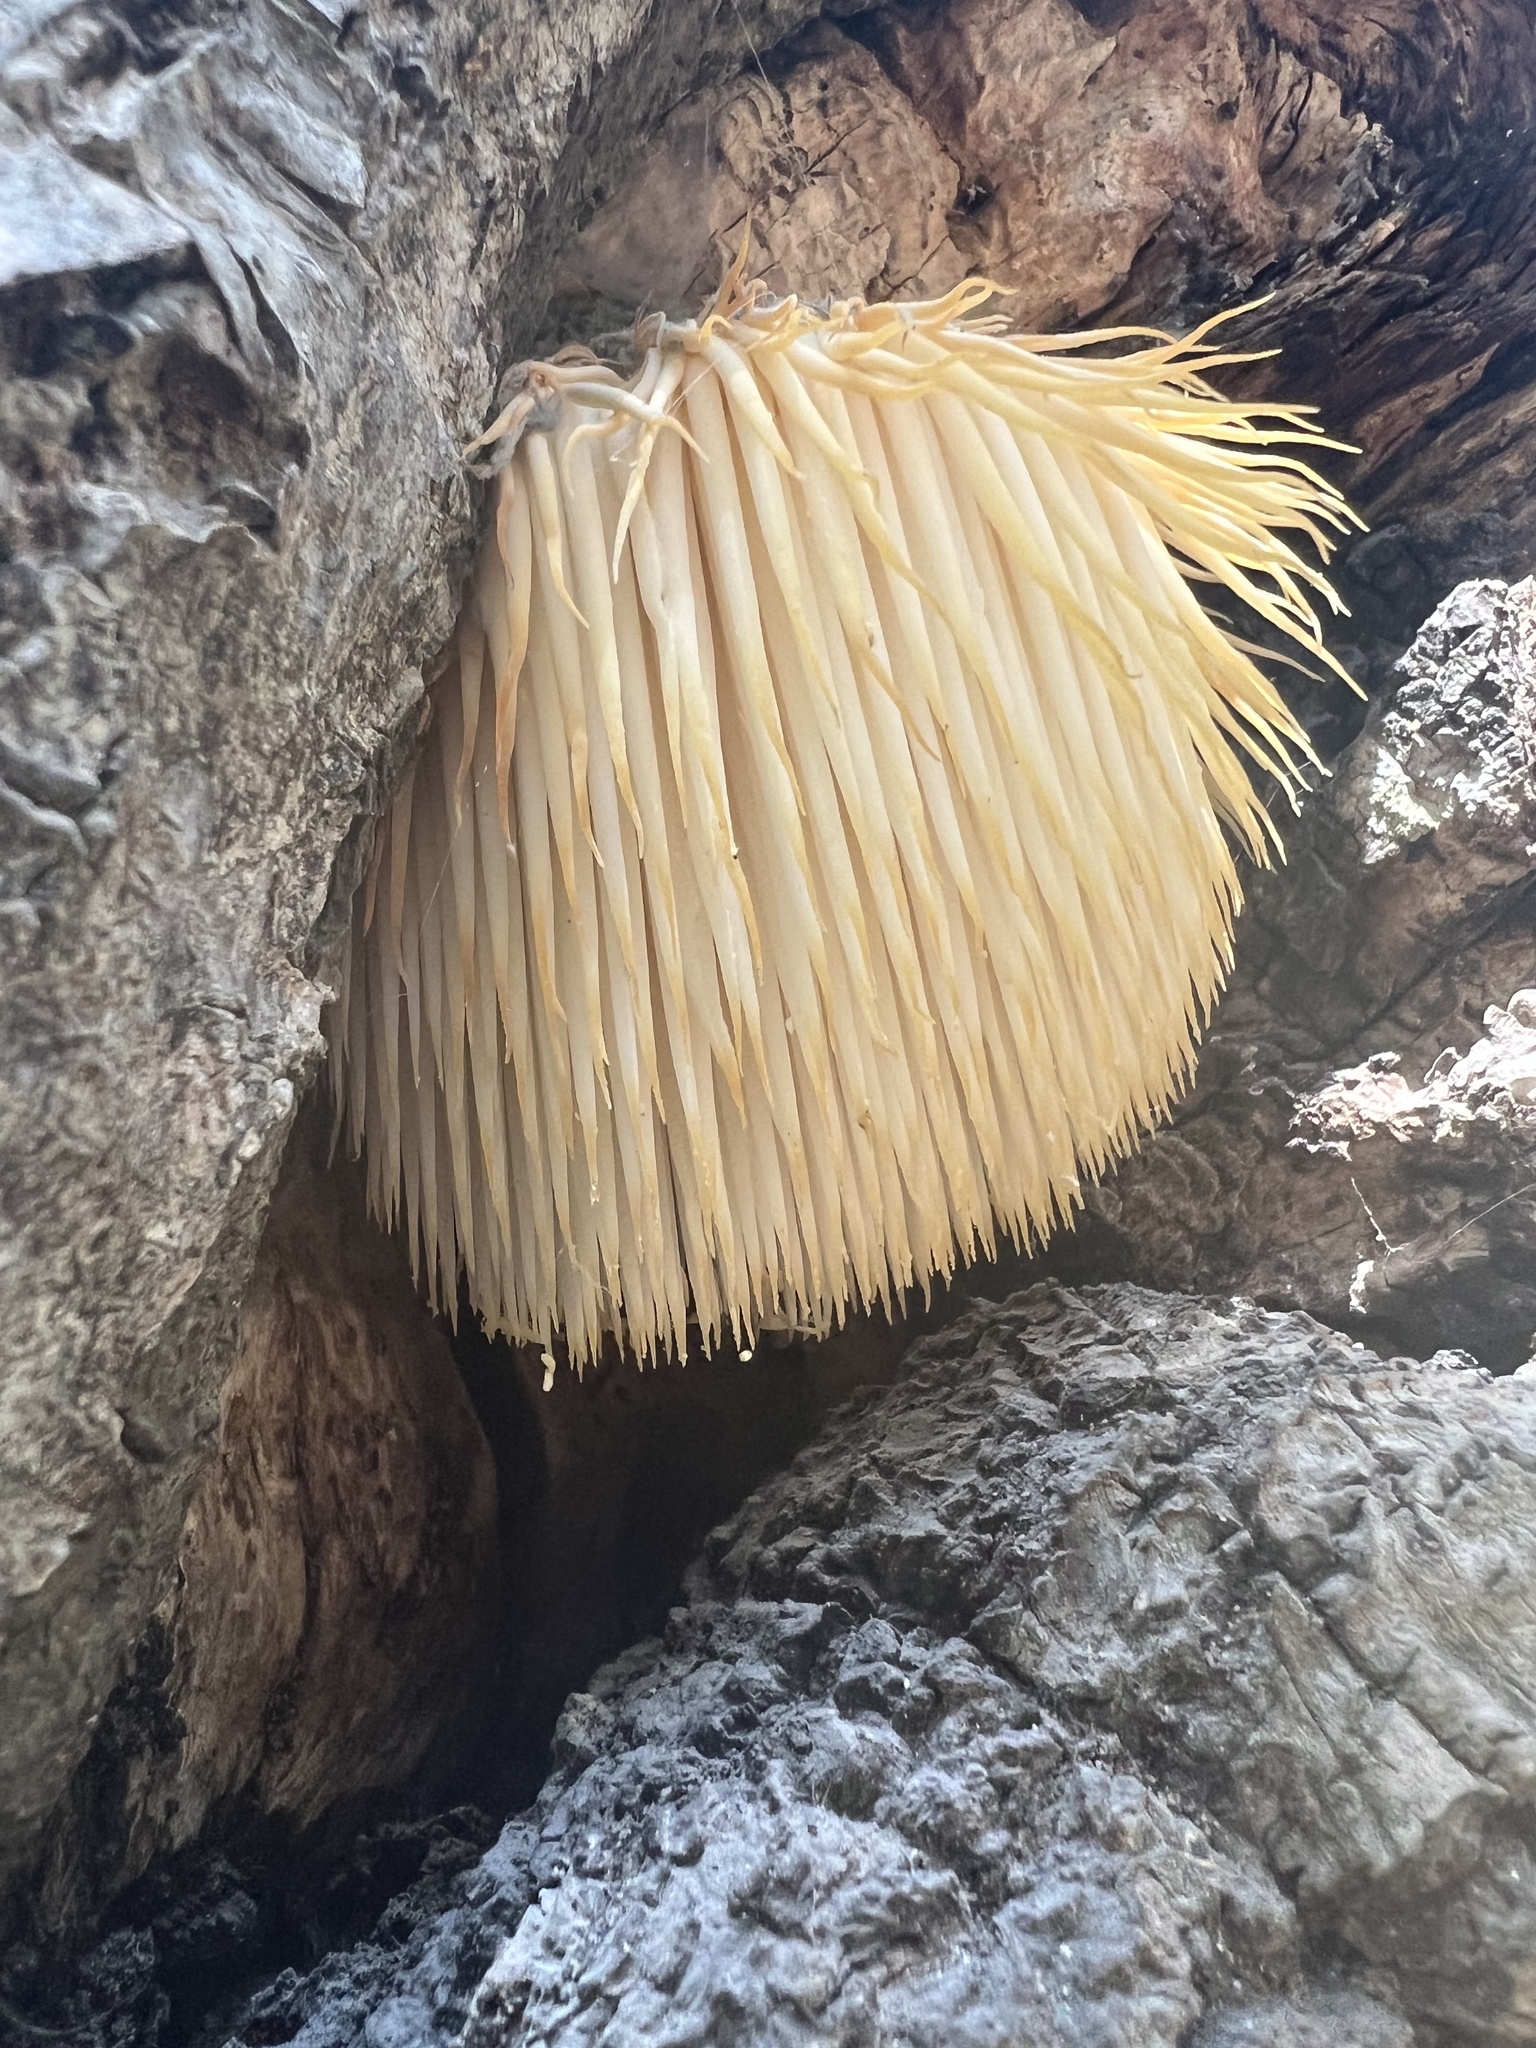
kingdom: Fungi
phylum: Basidiomycota
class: Agaricomycetes
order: Russulales
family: Hericiaceae
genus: Hericium
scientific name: Hericium erinaceus
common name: Bearded tooth
